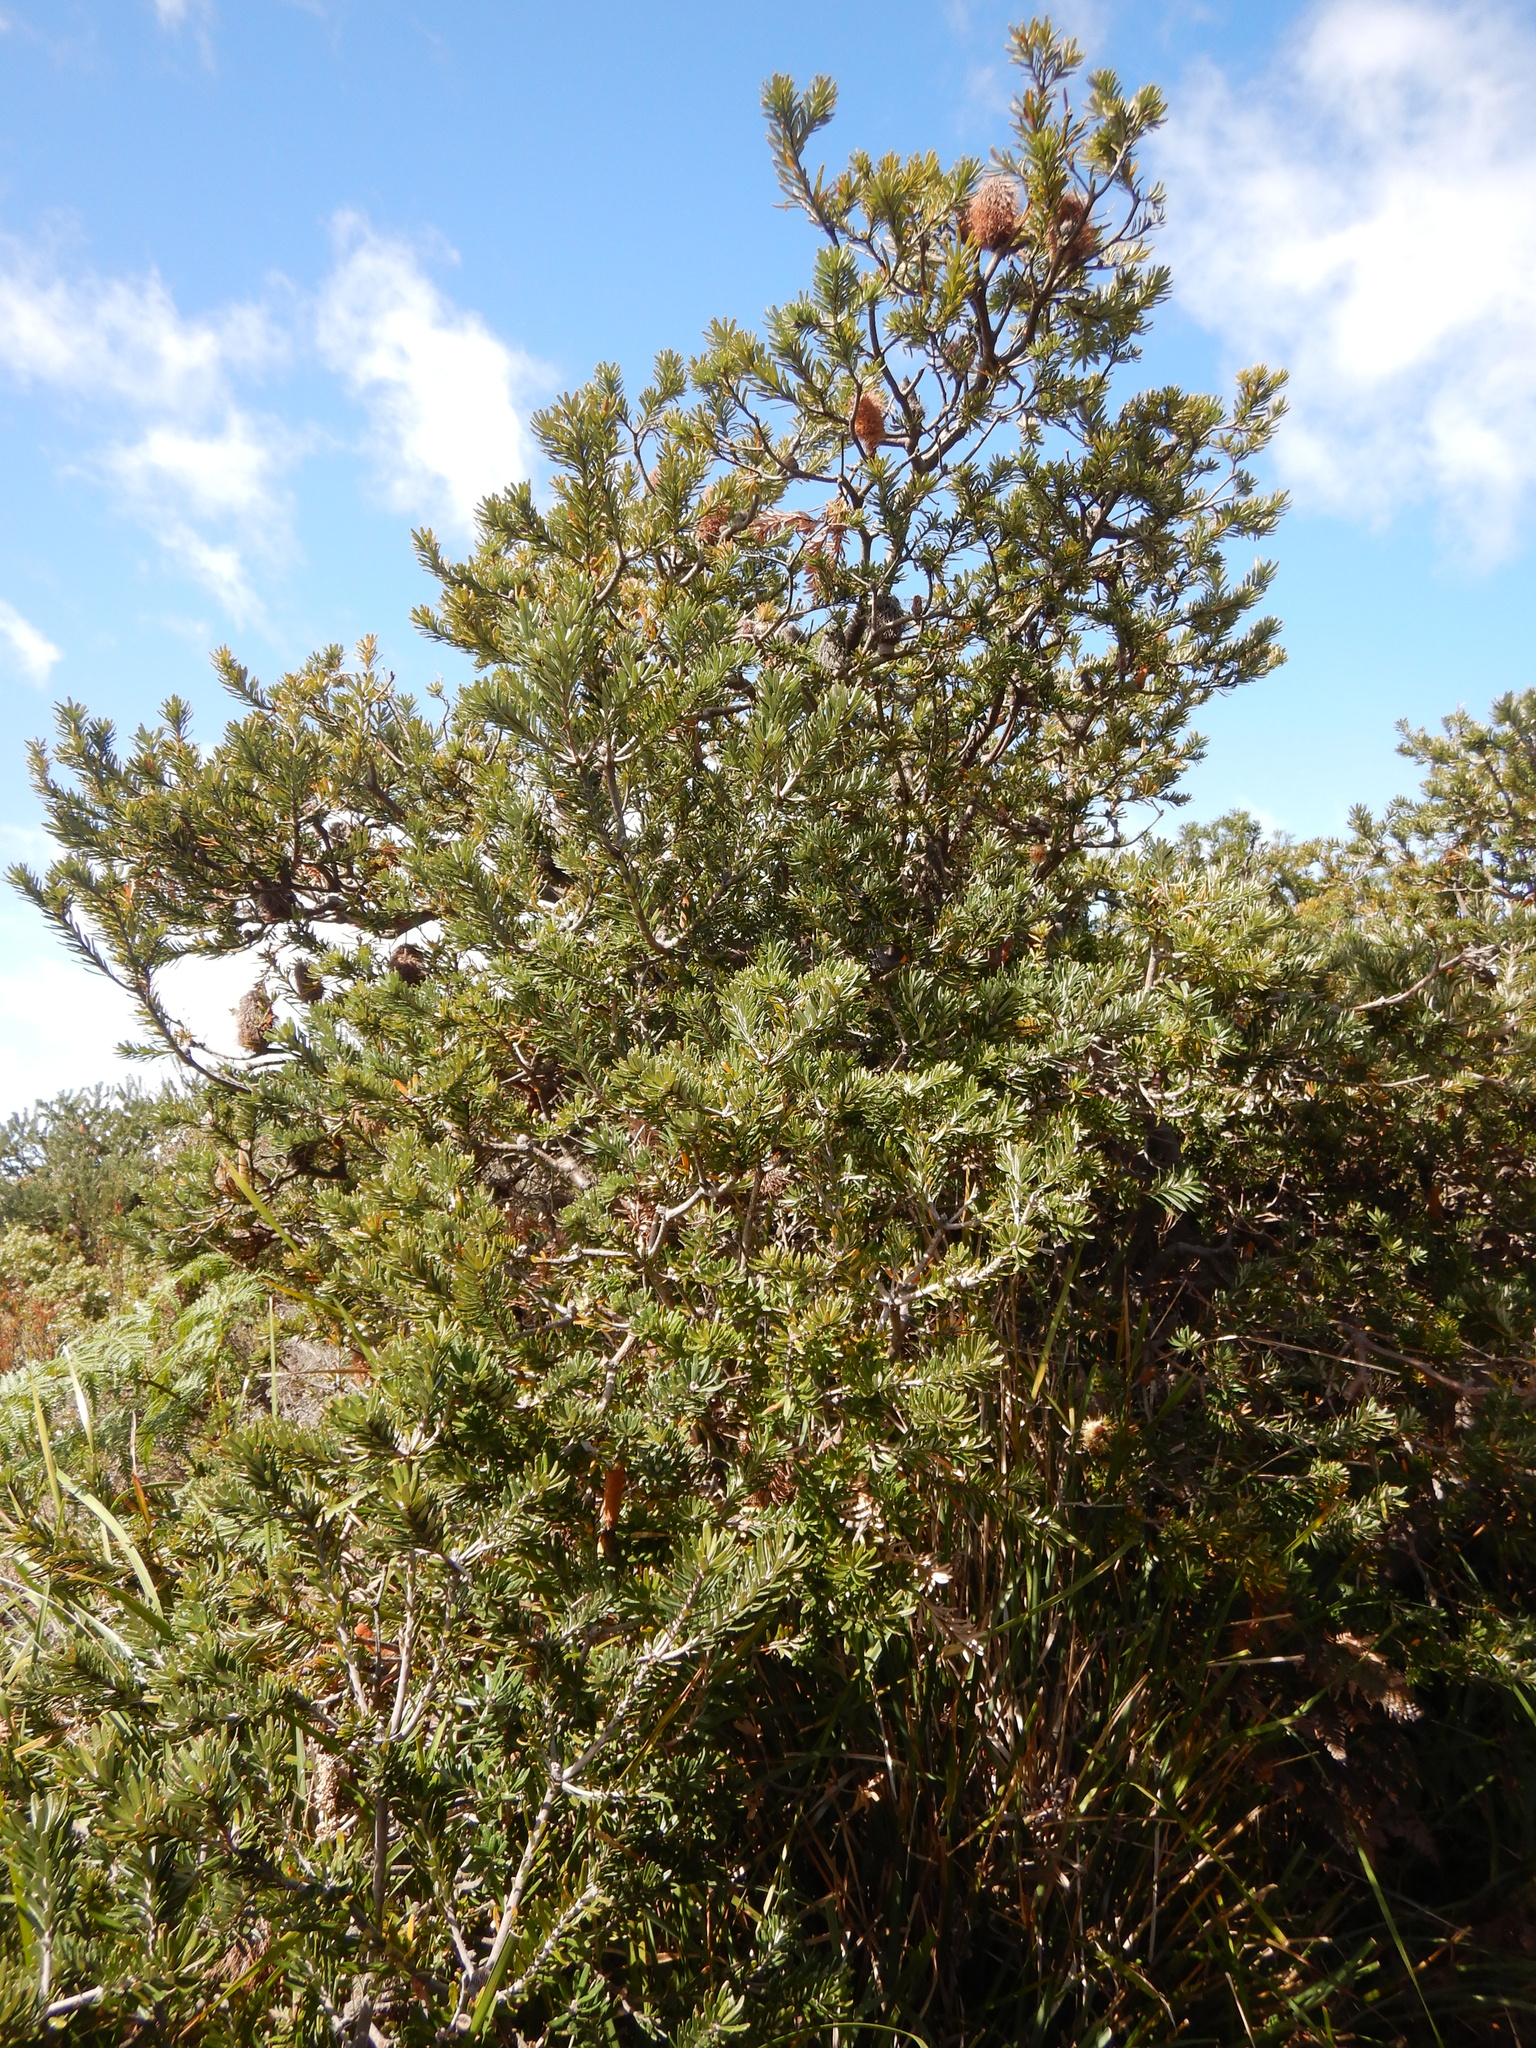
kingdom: Plantae
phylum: Tracheophyta
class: Magnoliopsida
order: Proteales
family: Proteaceae
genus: Banksia
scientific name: Banksia marginata
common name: Silver banksia
